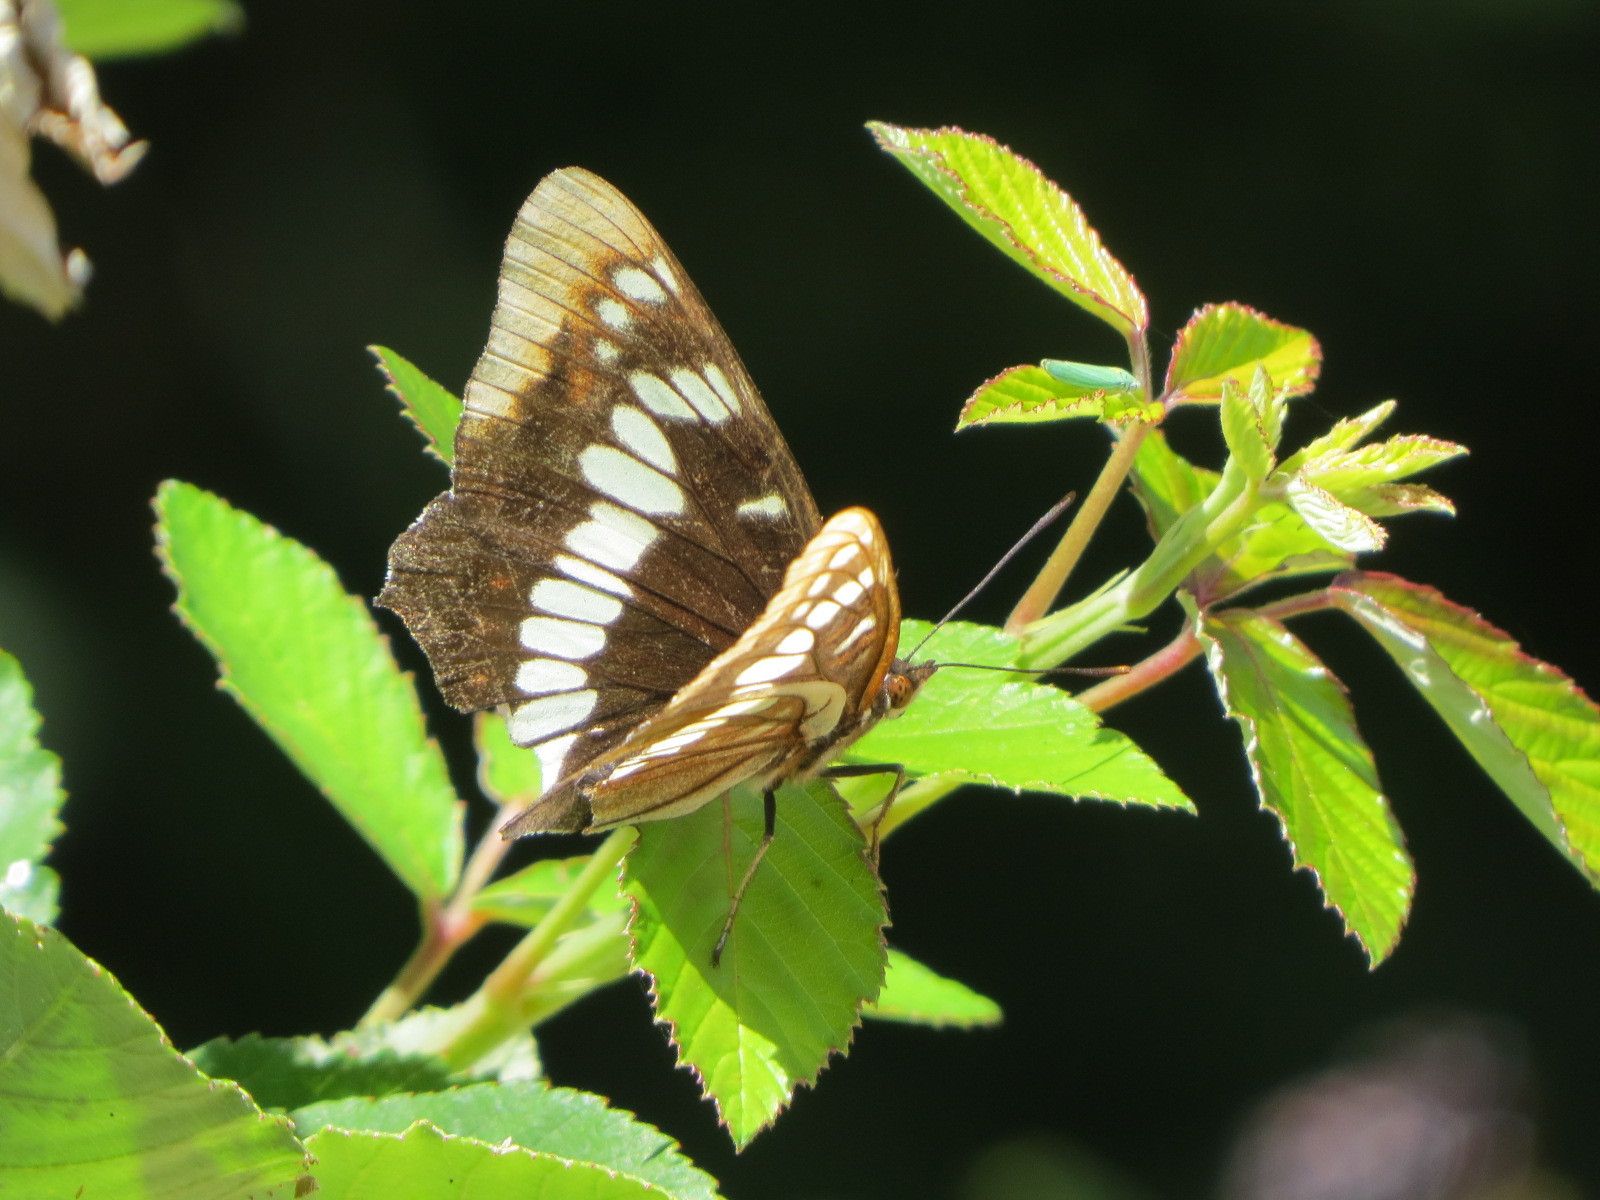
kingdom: Animalia
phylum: Arthropoda
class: Insecta
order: Lepidoptera
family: Nymphalidae
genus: Limenitis
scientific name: Limenitis lorquini
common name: Lorquin's admiral
